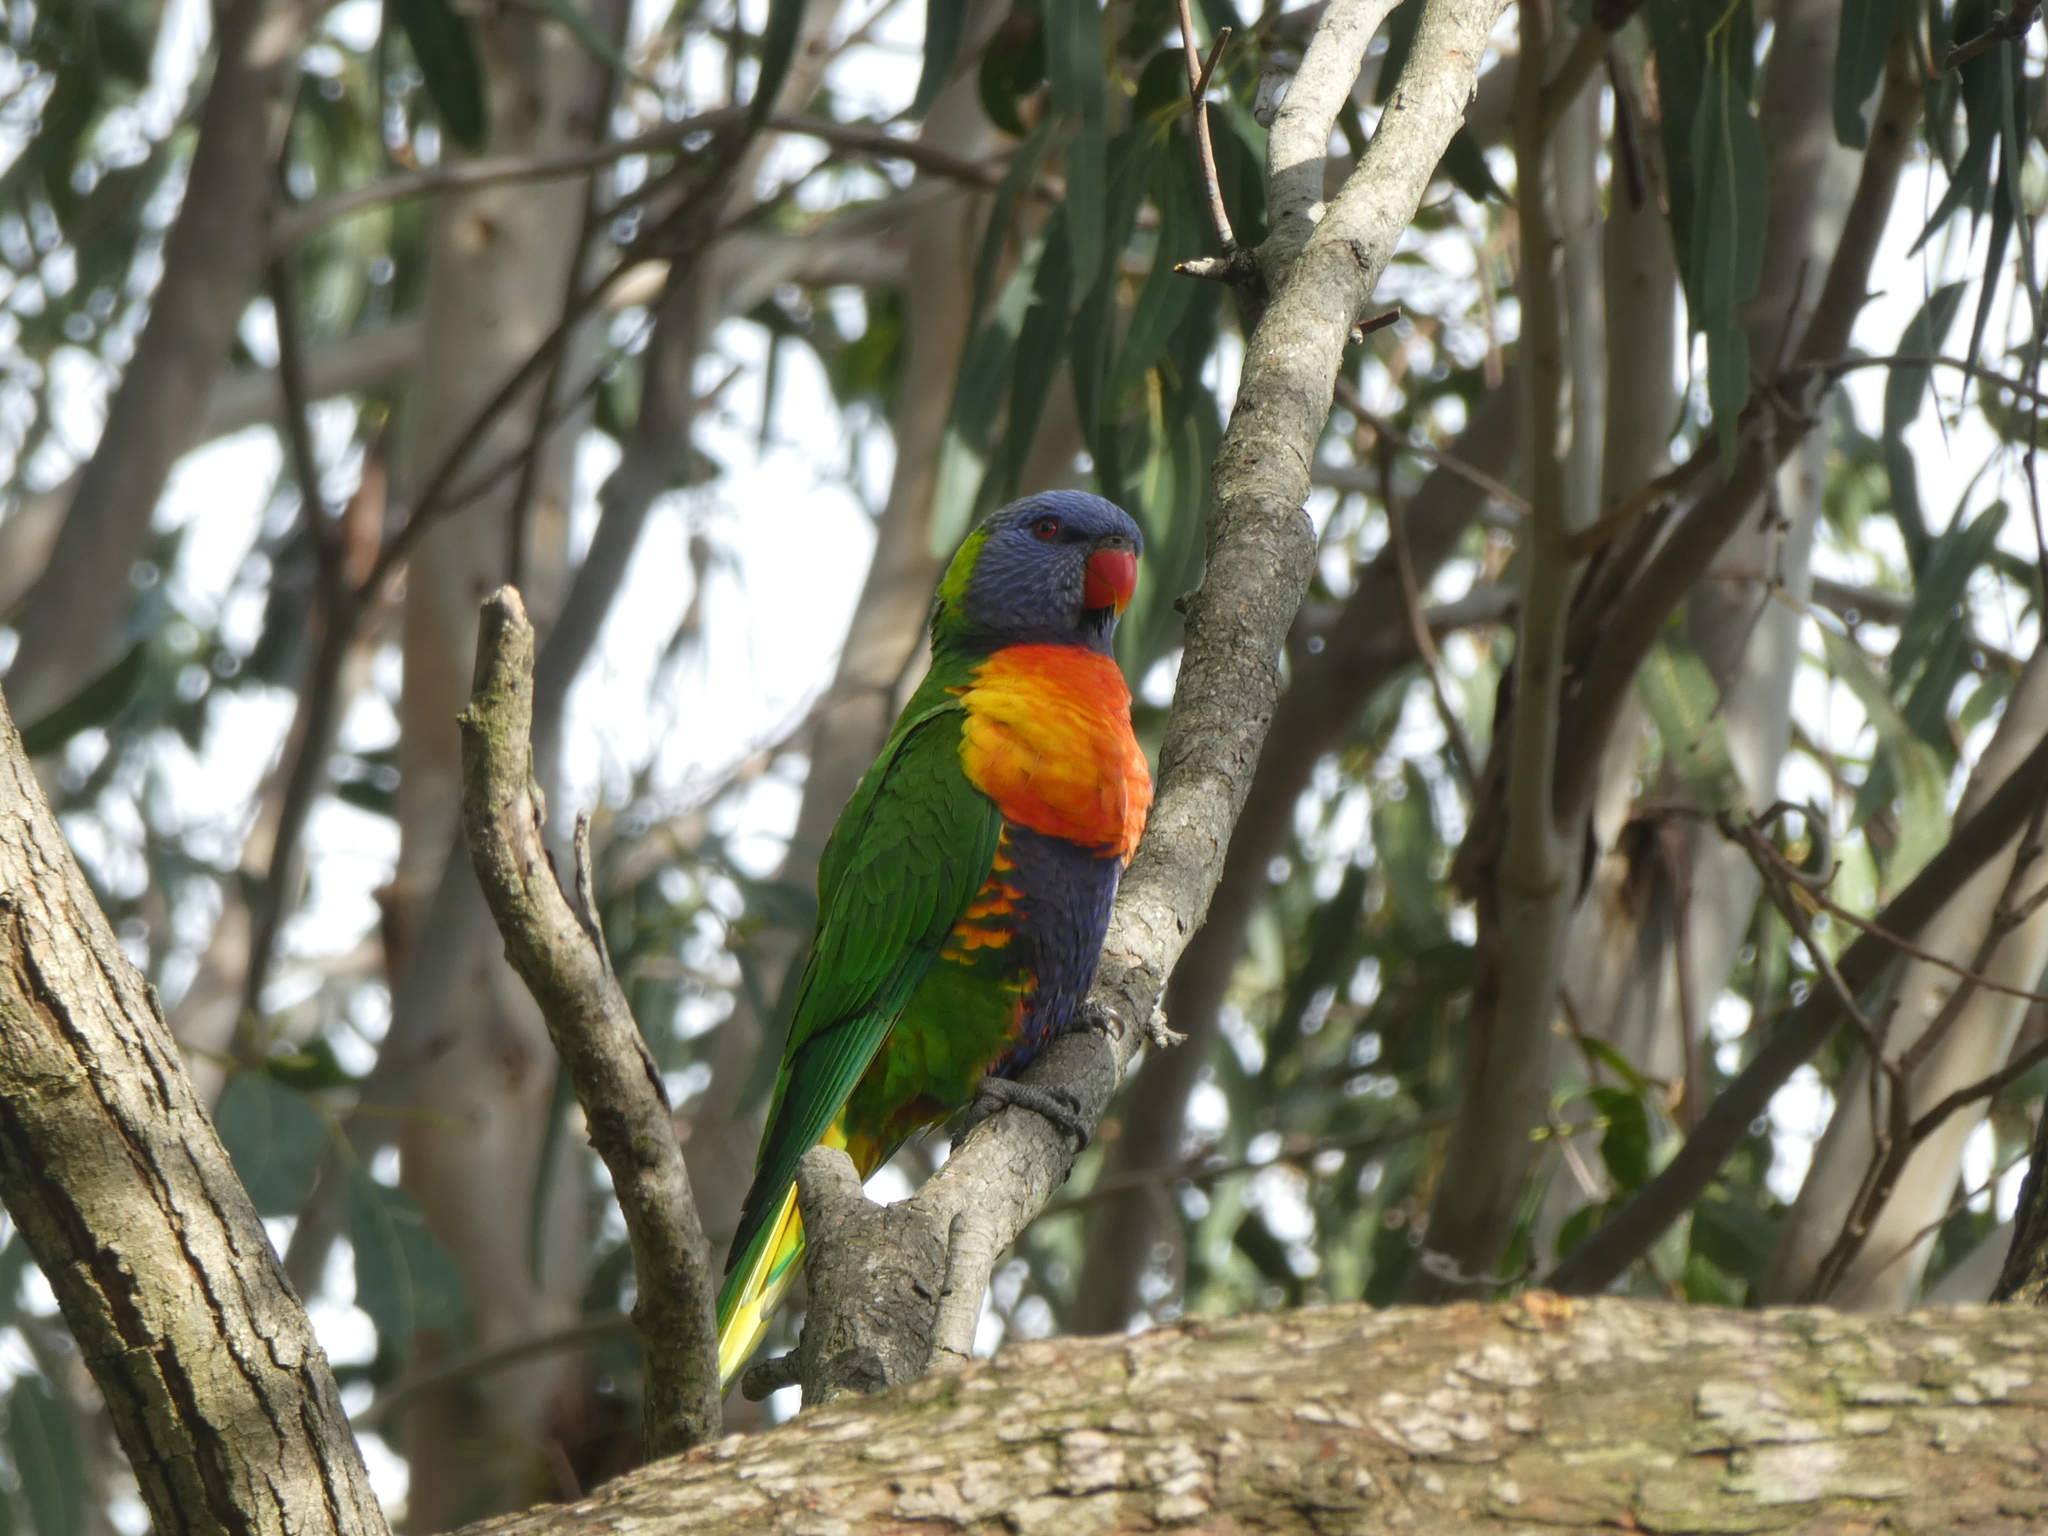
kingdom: Animalia
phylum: Chordata
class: Aves
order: Psittaciformes
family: Psittacidae
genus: Trichoglossus
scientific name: Trichoglossus haematodus
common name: Coconut lorikeet
